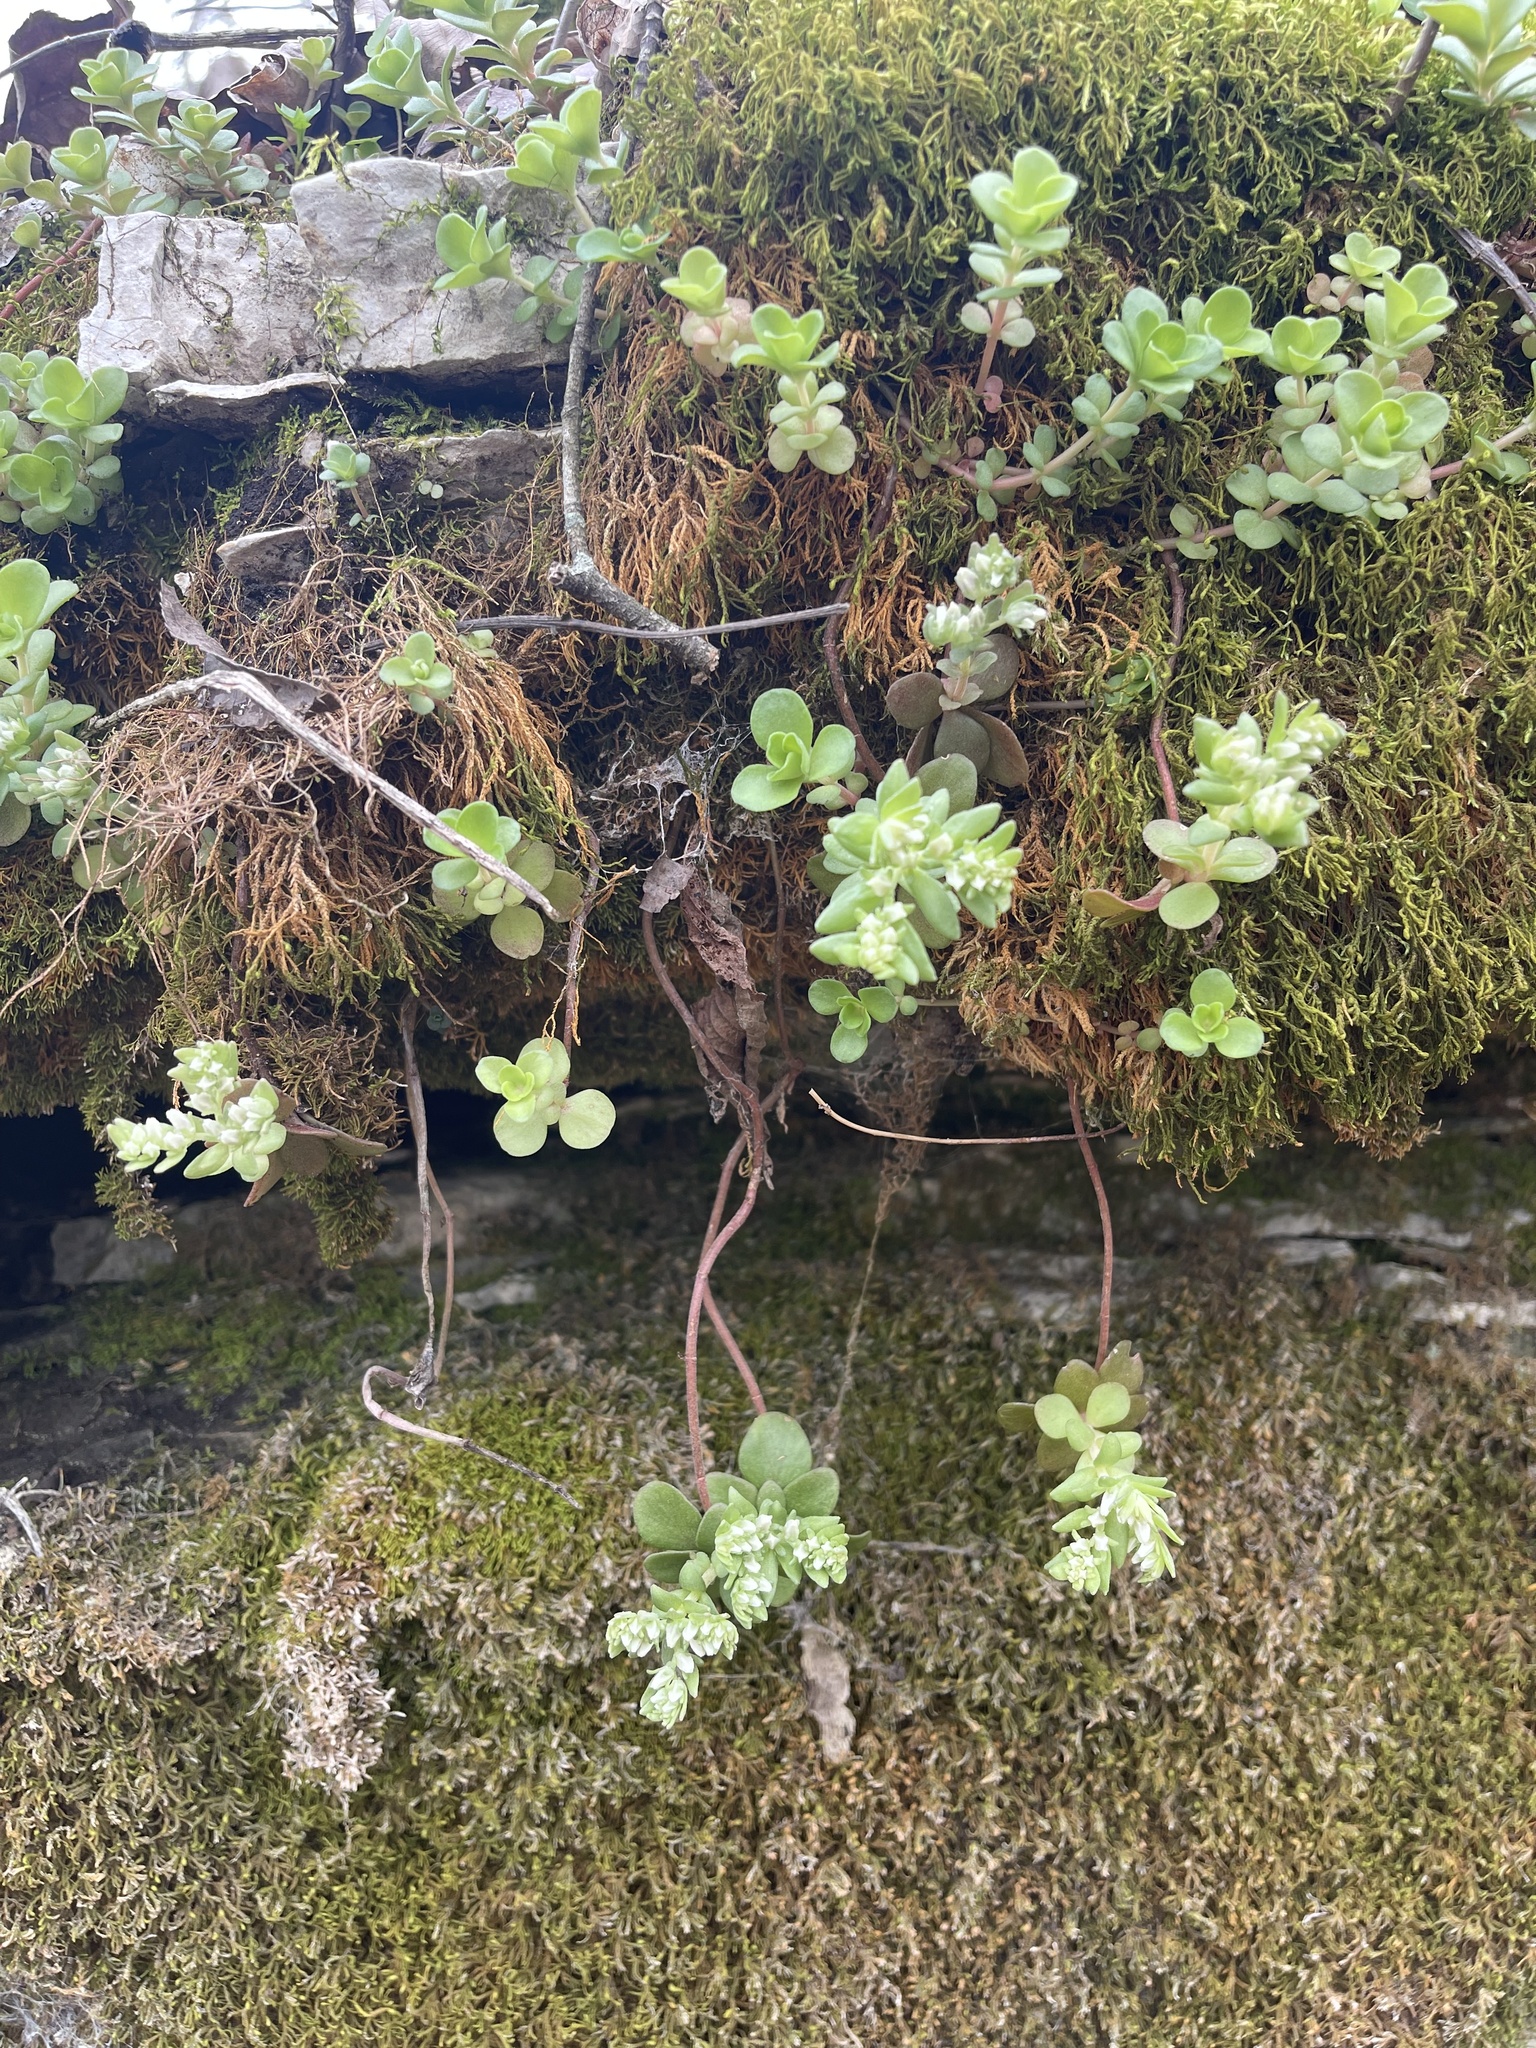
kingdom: Plantae
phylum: Tracheophyta
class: Magnoliopsida
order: Saxifragales
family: Crassulaceae
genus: Sedum
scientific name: Sedum ternatum
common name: Wild stonecrop
